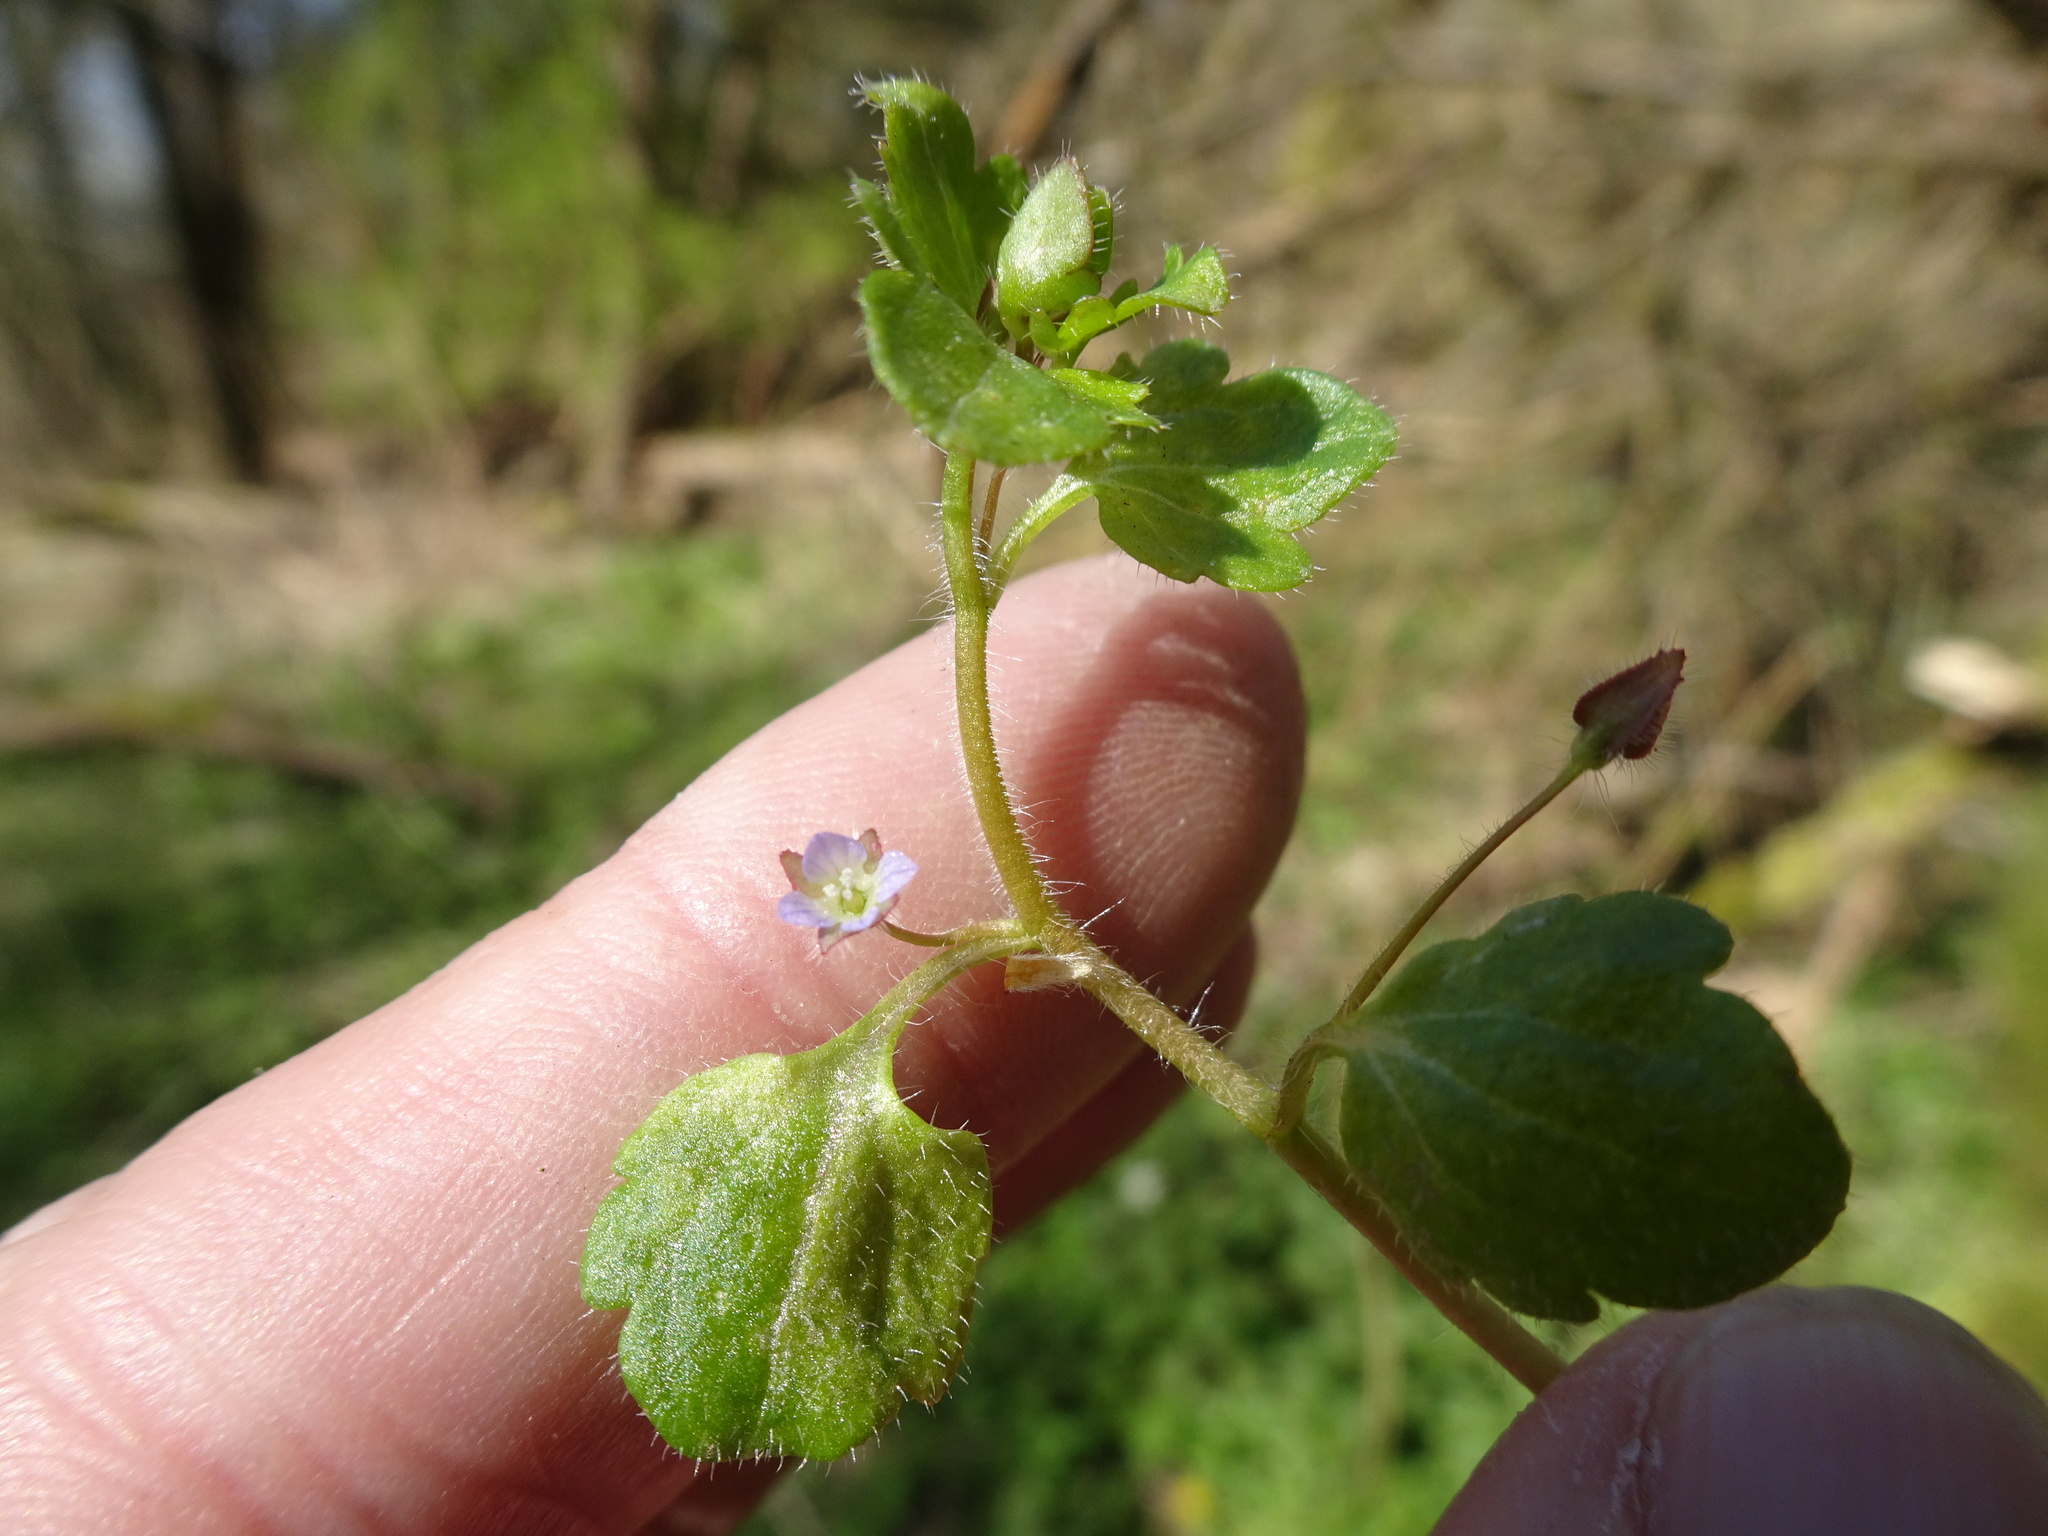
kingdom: Plantae
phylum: Tracheophyta
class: Magnoliopsida
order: Lamiales
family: Plantaginaceae
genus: Veronica
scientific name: Veronica hederifolia
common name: Ivy-leaved speedwell
